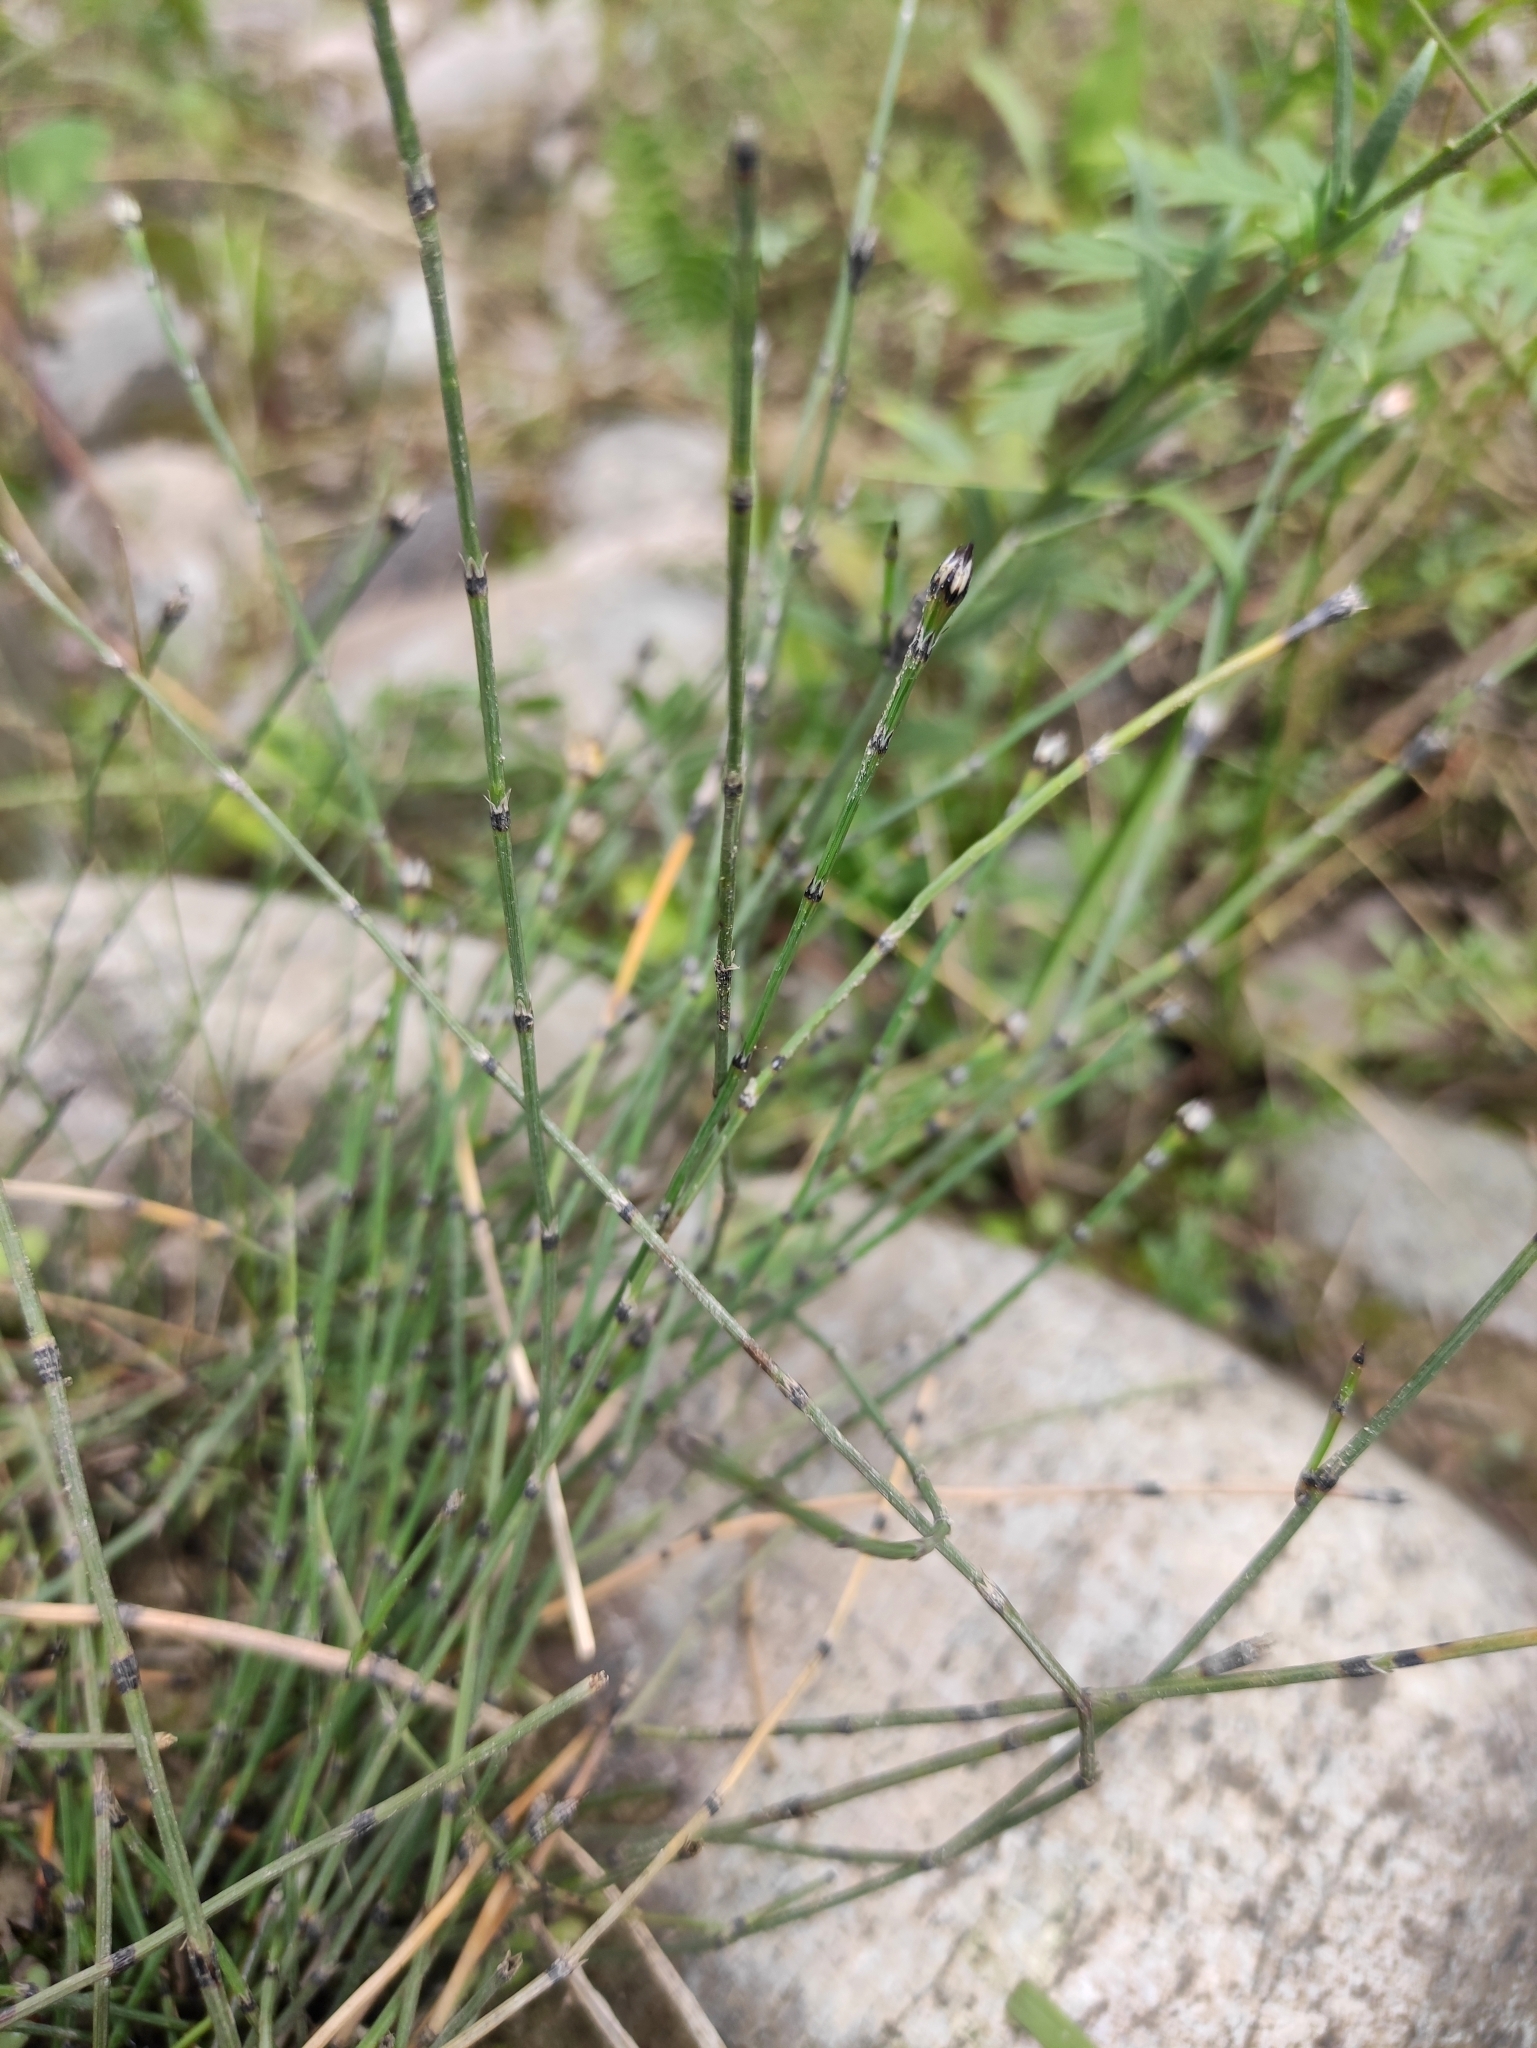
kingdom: Plantae
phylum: Tracheophyta
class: Polypodiopsida
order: Equisetales
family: Equisetaceae
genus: Equisetum
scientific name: Equisetum variegatum
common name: Variegated horsetail
